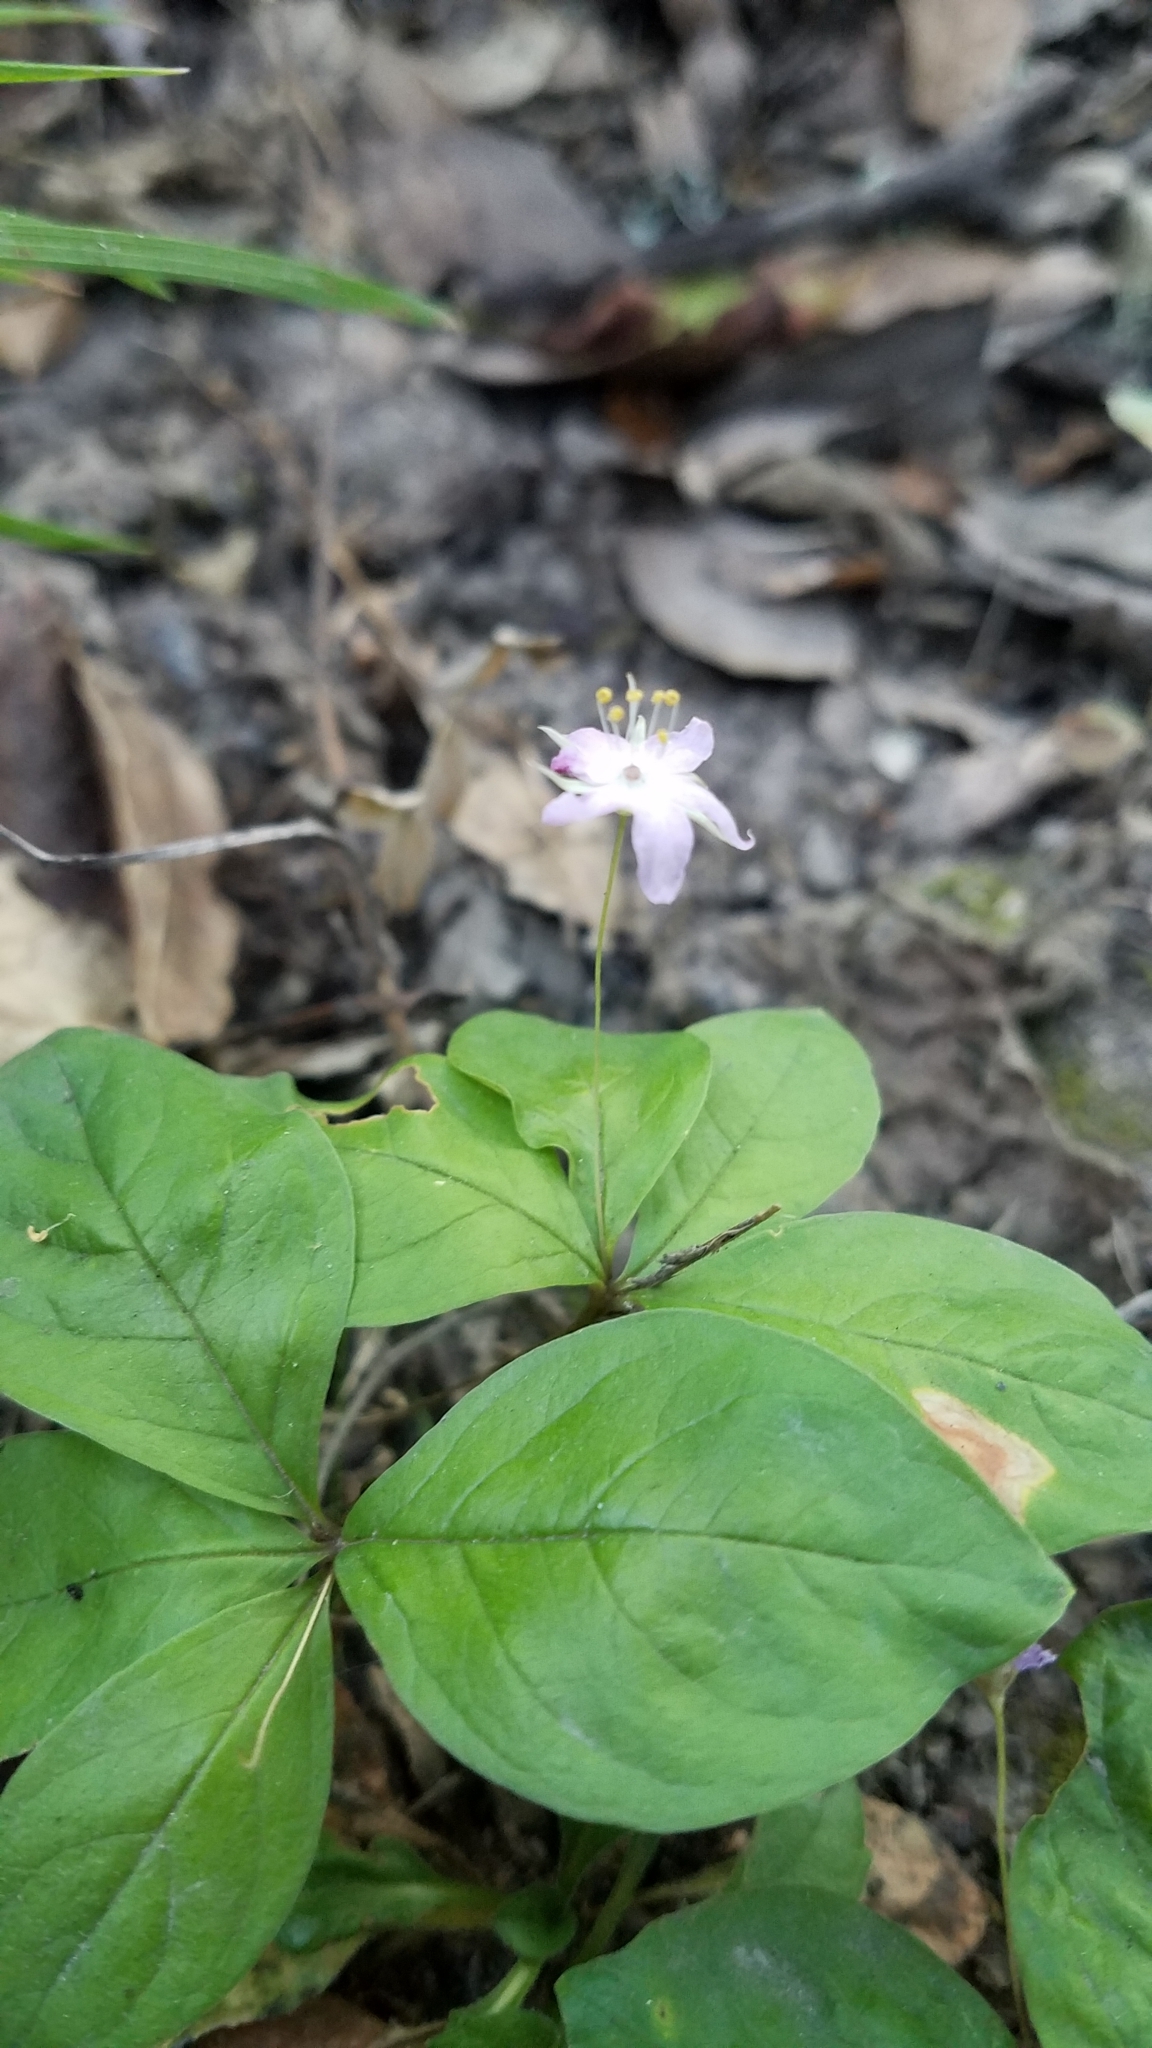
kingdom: Plantae
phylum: Tracheophyta
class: Magnoliopsida
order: Ericales
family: Primulaceae
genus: Lysimachia
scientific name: Lysimachia latifolia
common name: Pacific starflower
